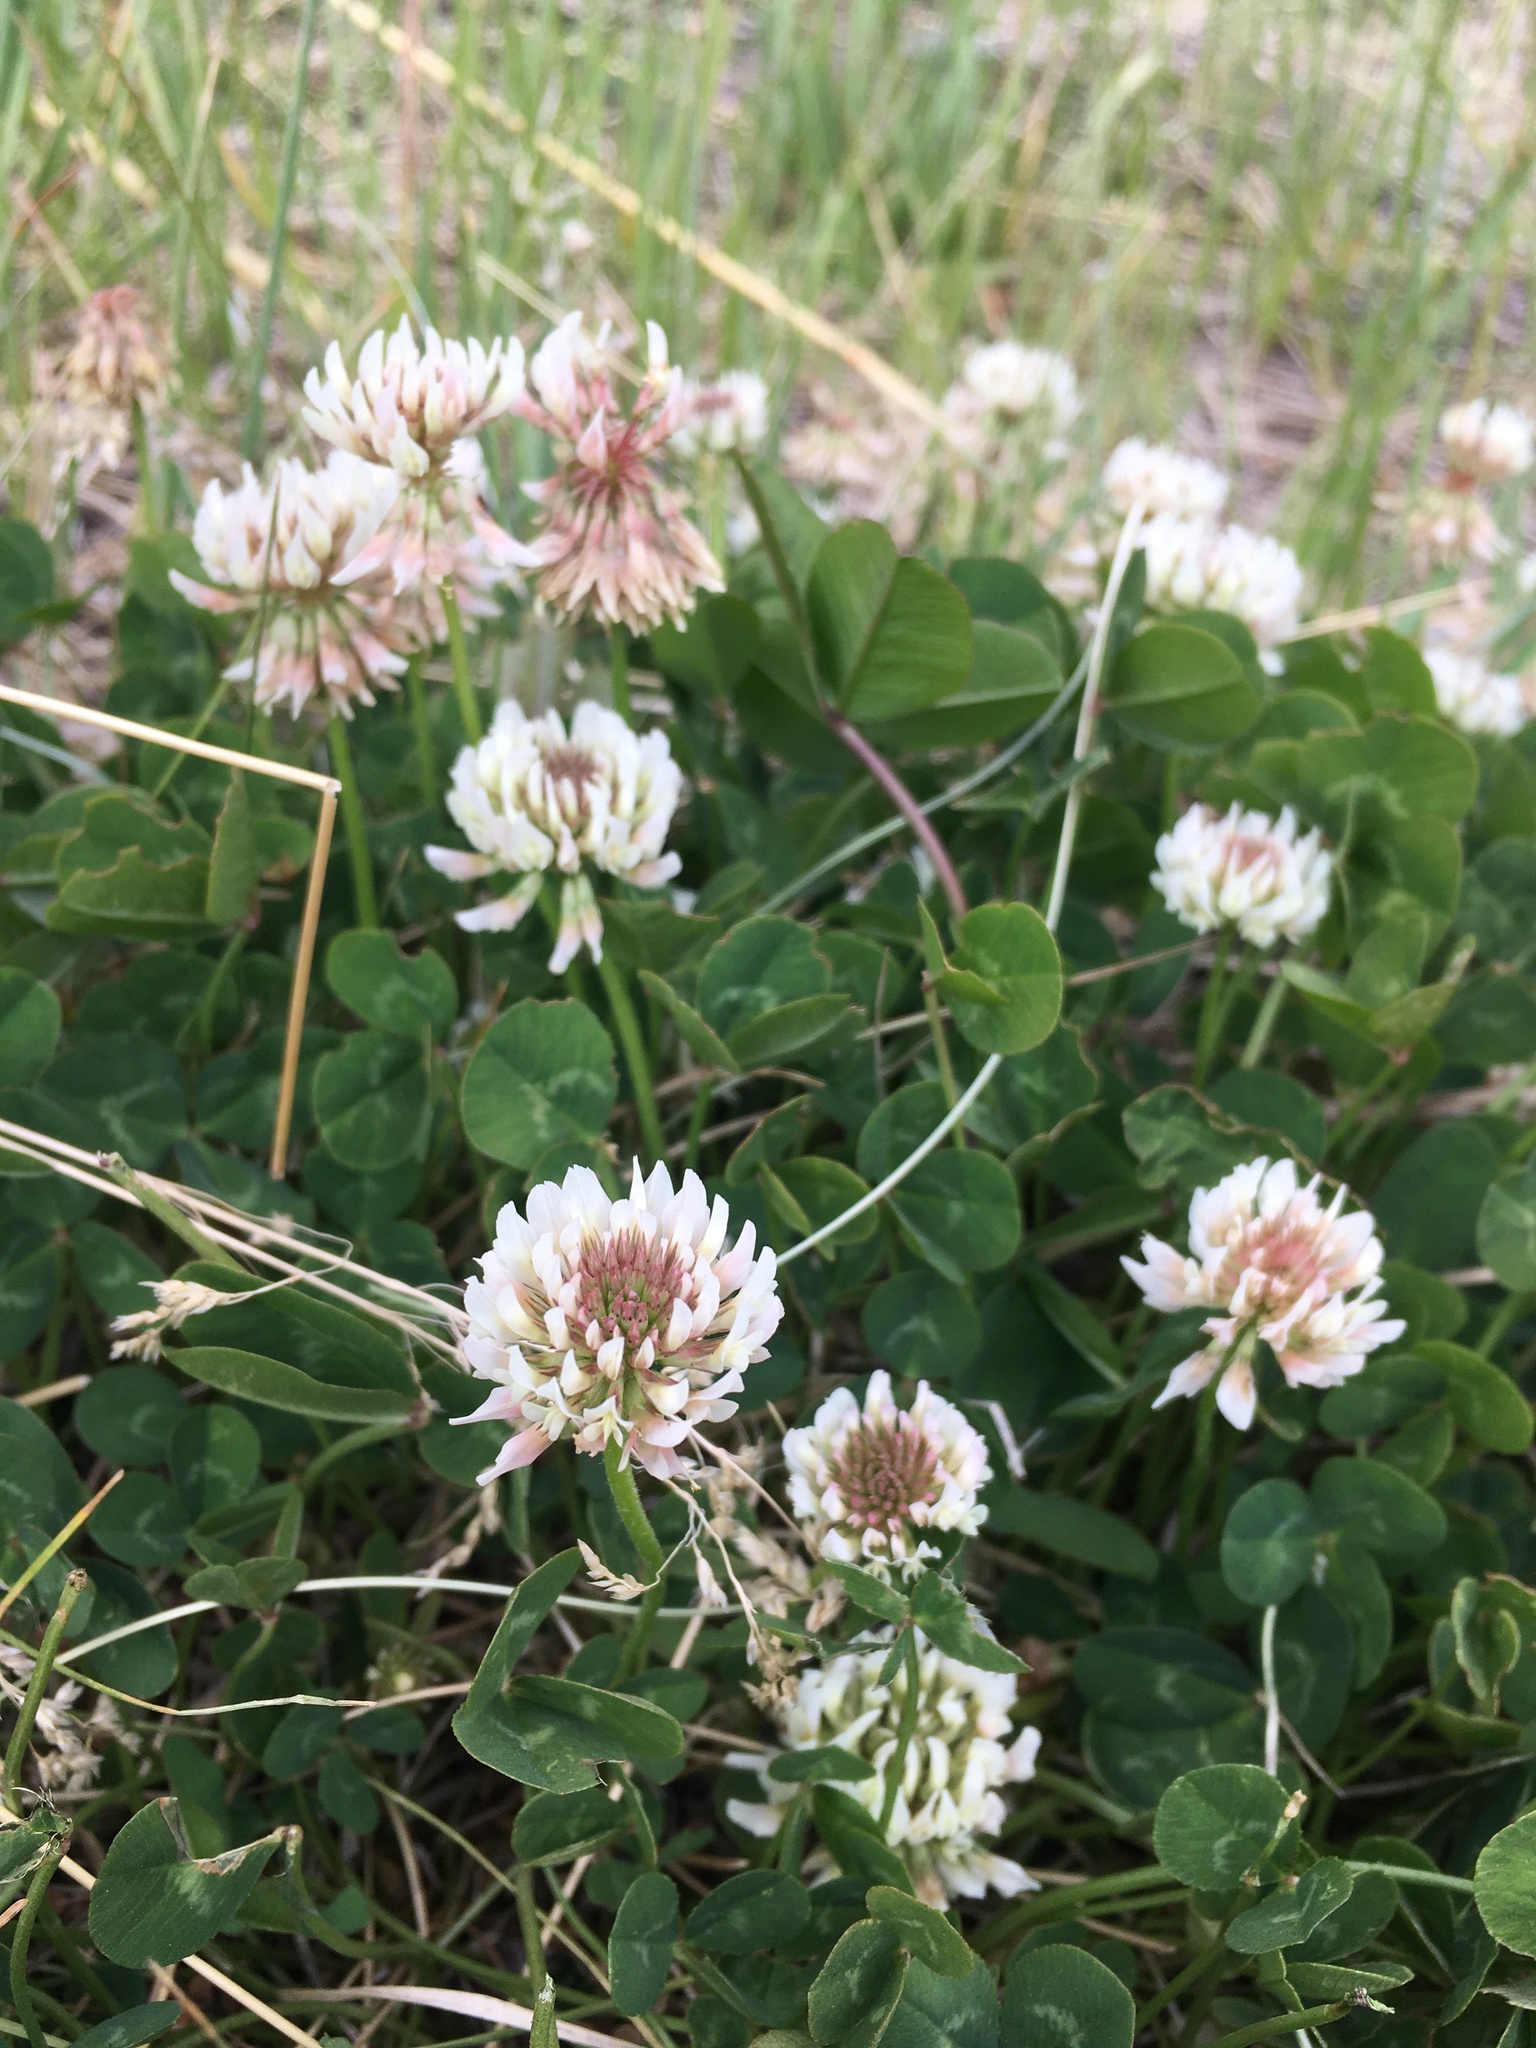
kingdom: Plantae
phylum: Tracheophyta
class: Magnoliopsida
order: Fabales
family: Fabaceae
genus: Trifolium
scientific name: Trifolium repens
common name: White clover
